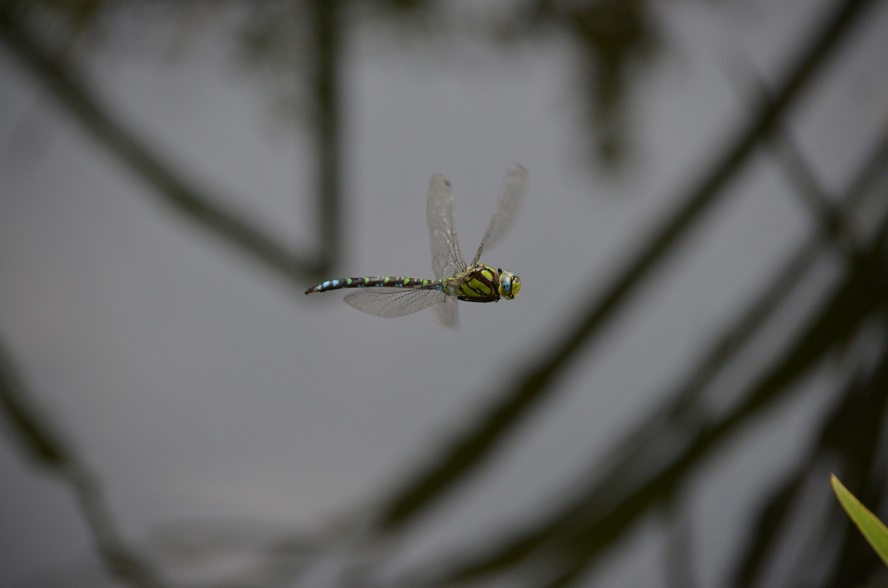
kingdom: Animalia
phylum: Arthropoda
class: Insecta
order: Odonata
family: Aeshnidae
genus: Aeshna
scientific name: Aeshna cyanea
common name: Southern hawker
